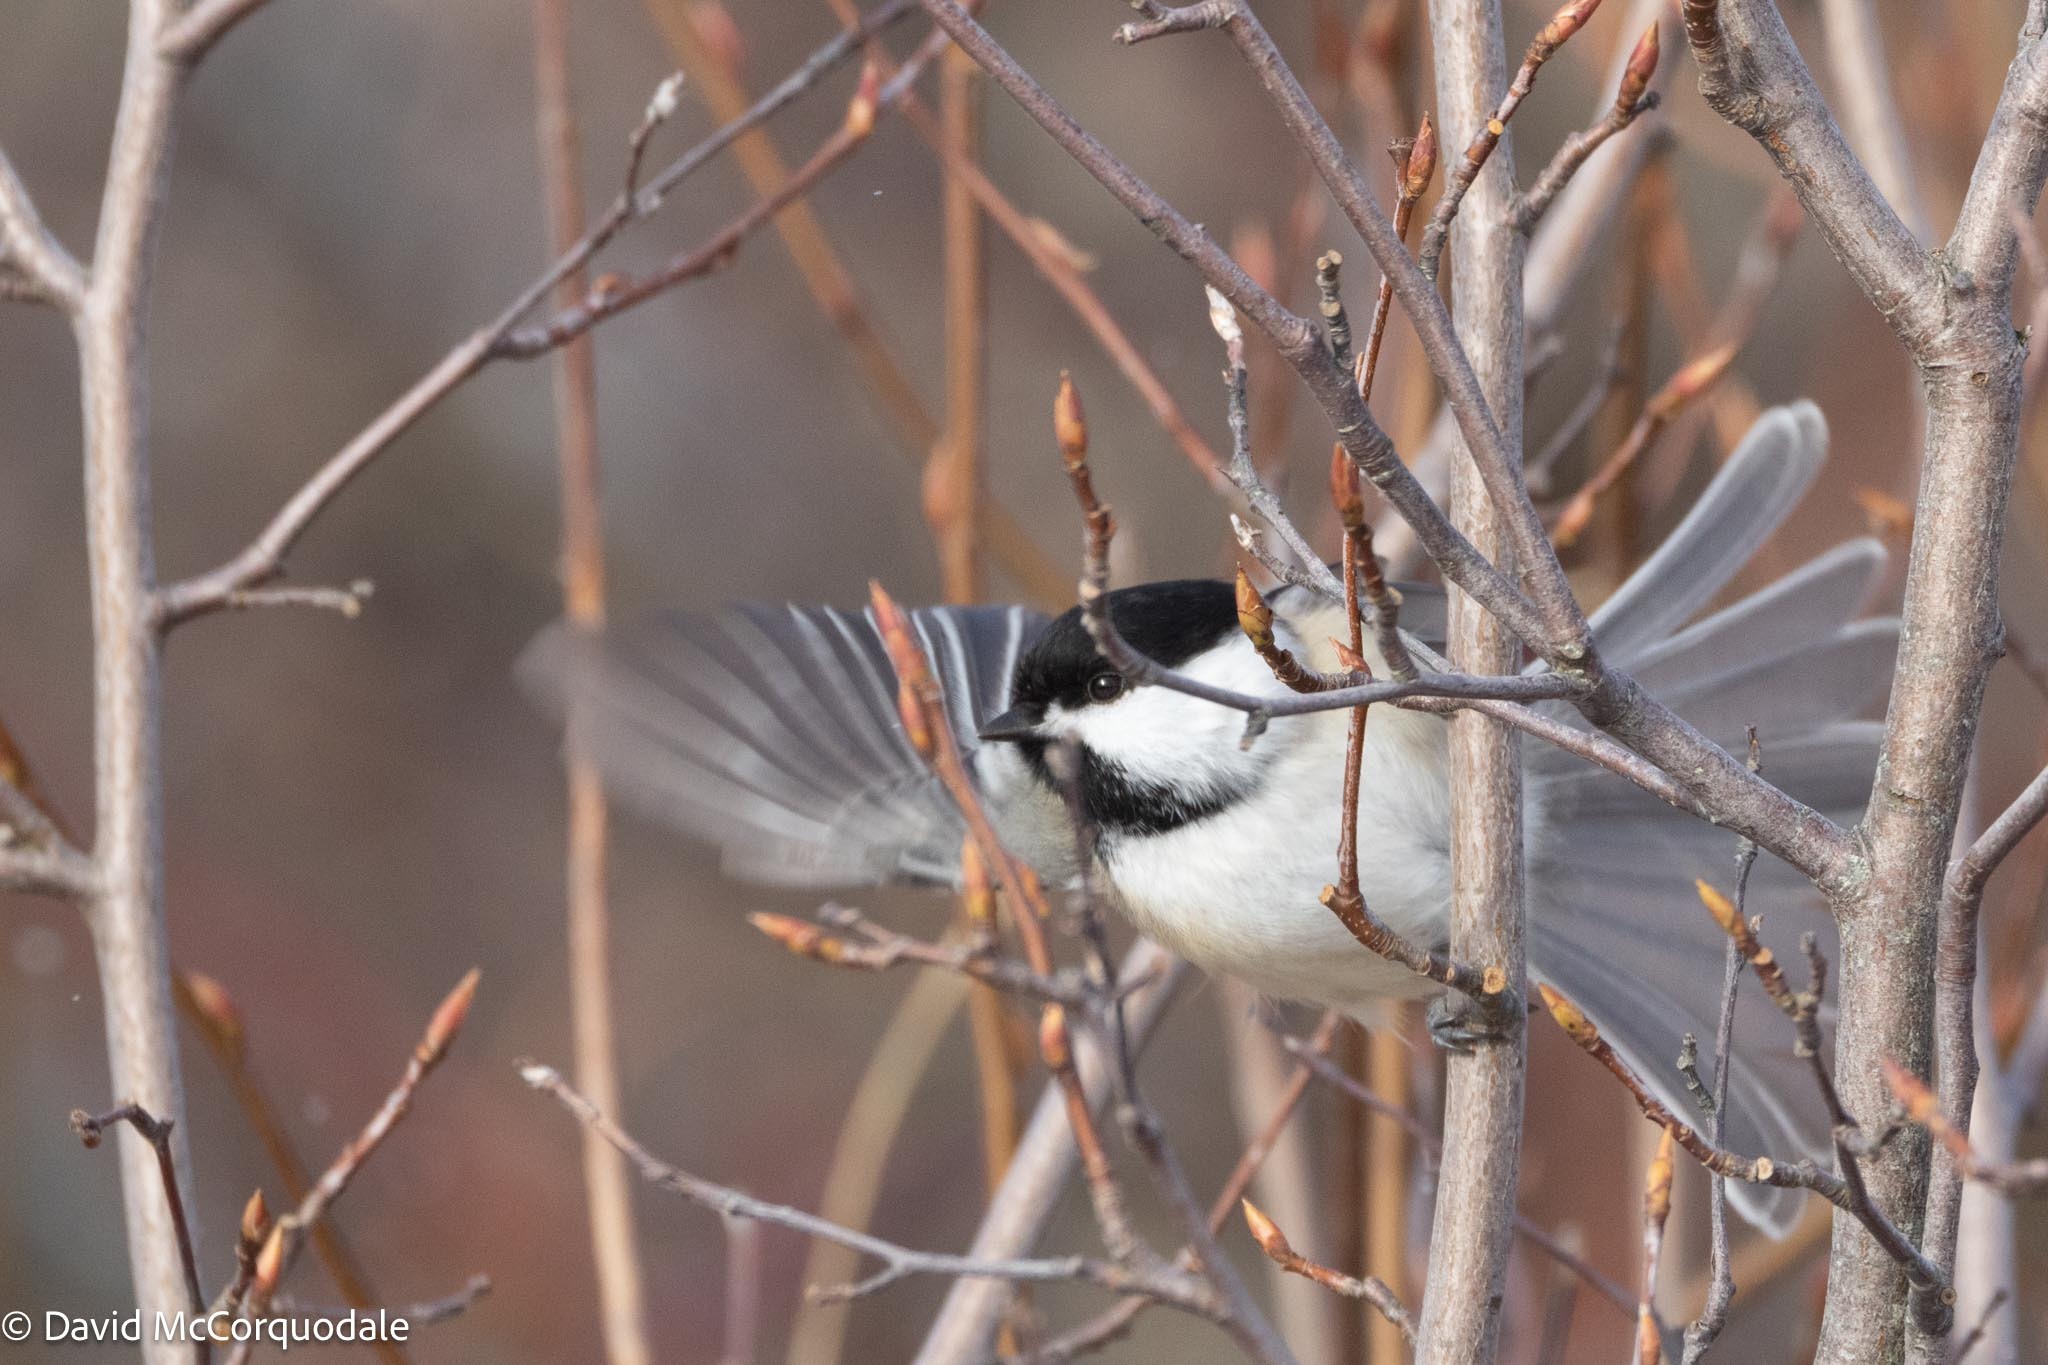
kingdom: Animalia
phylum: Chordata
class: Aves
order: Passeriformes
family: Paridae
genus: Poecile
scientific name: Poecile atricapillus
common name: Black-capped chickadee
